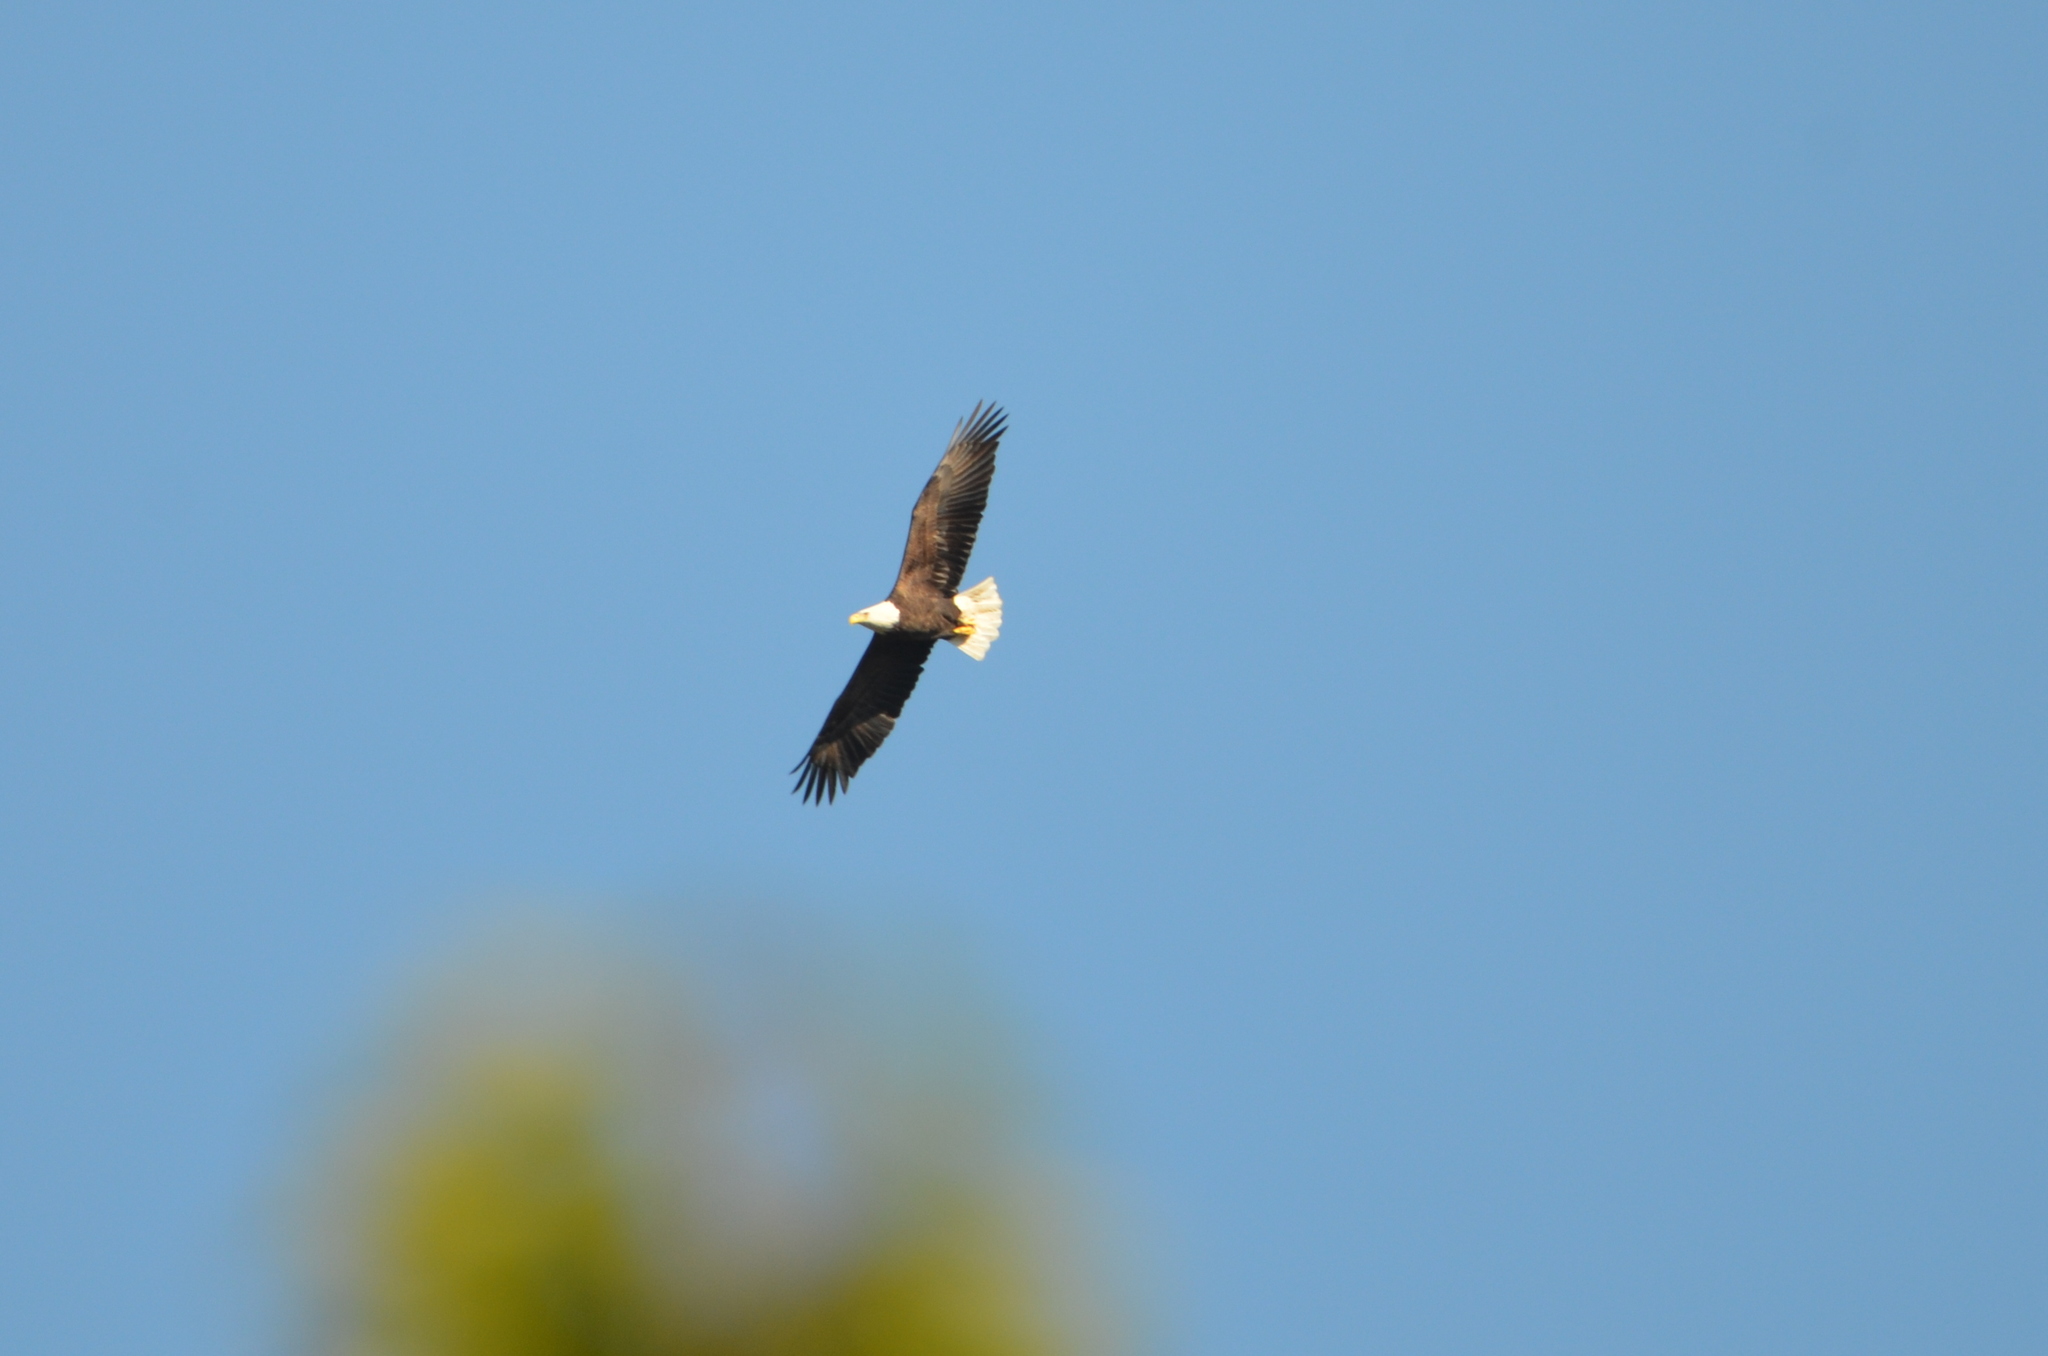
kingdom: Animalia
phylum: Chordata
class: Aves
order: Accipitriformes
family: Accipitridae
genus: Haliaeetus
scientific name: Haliaeetus leucocephalus
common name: Bald eagle
